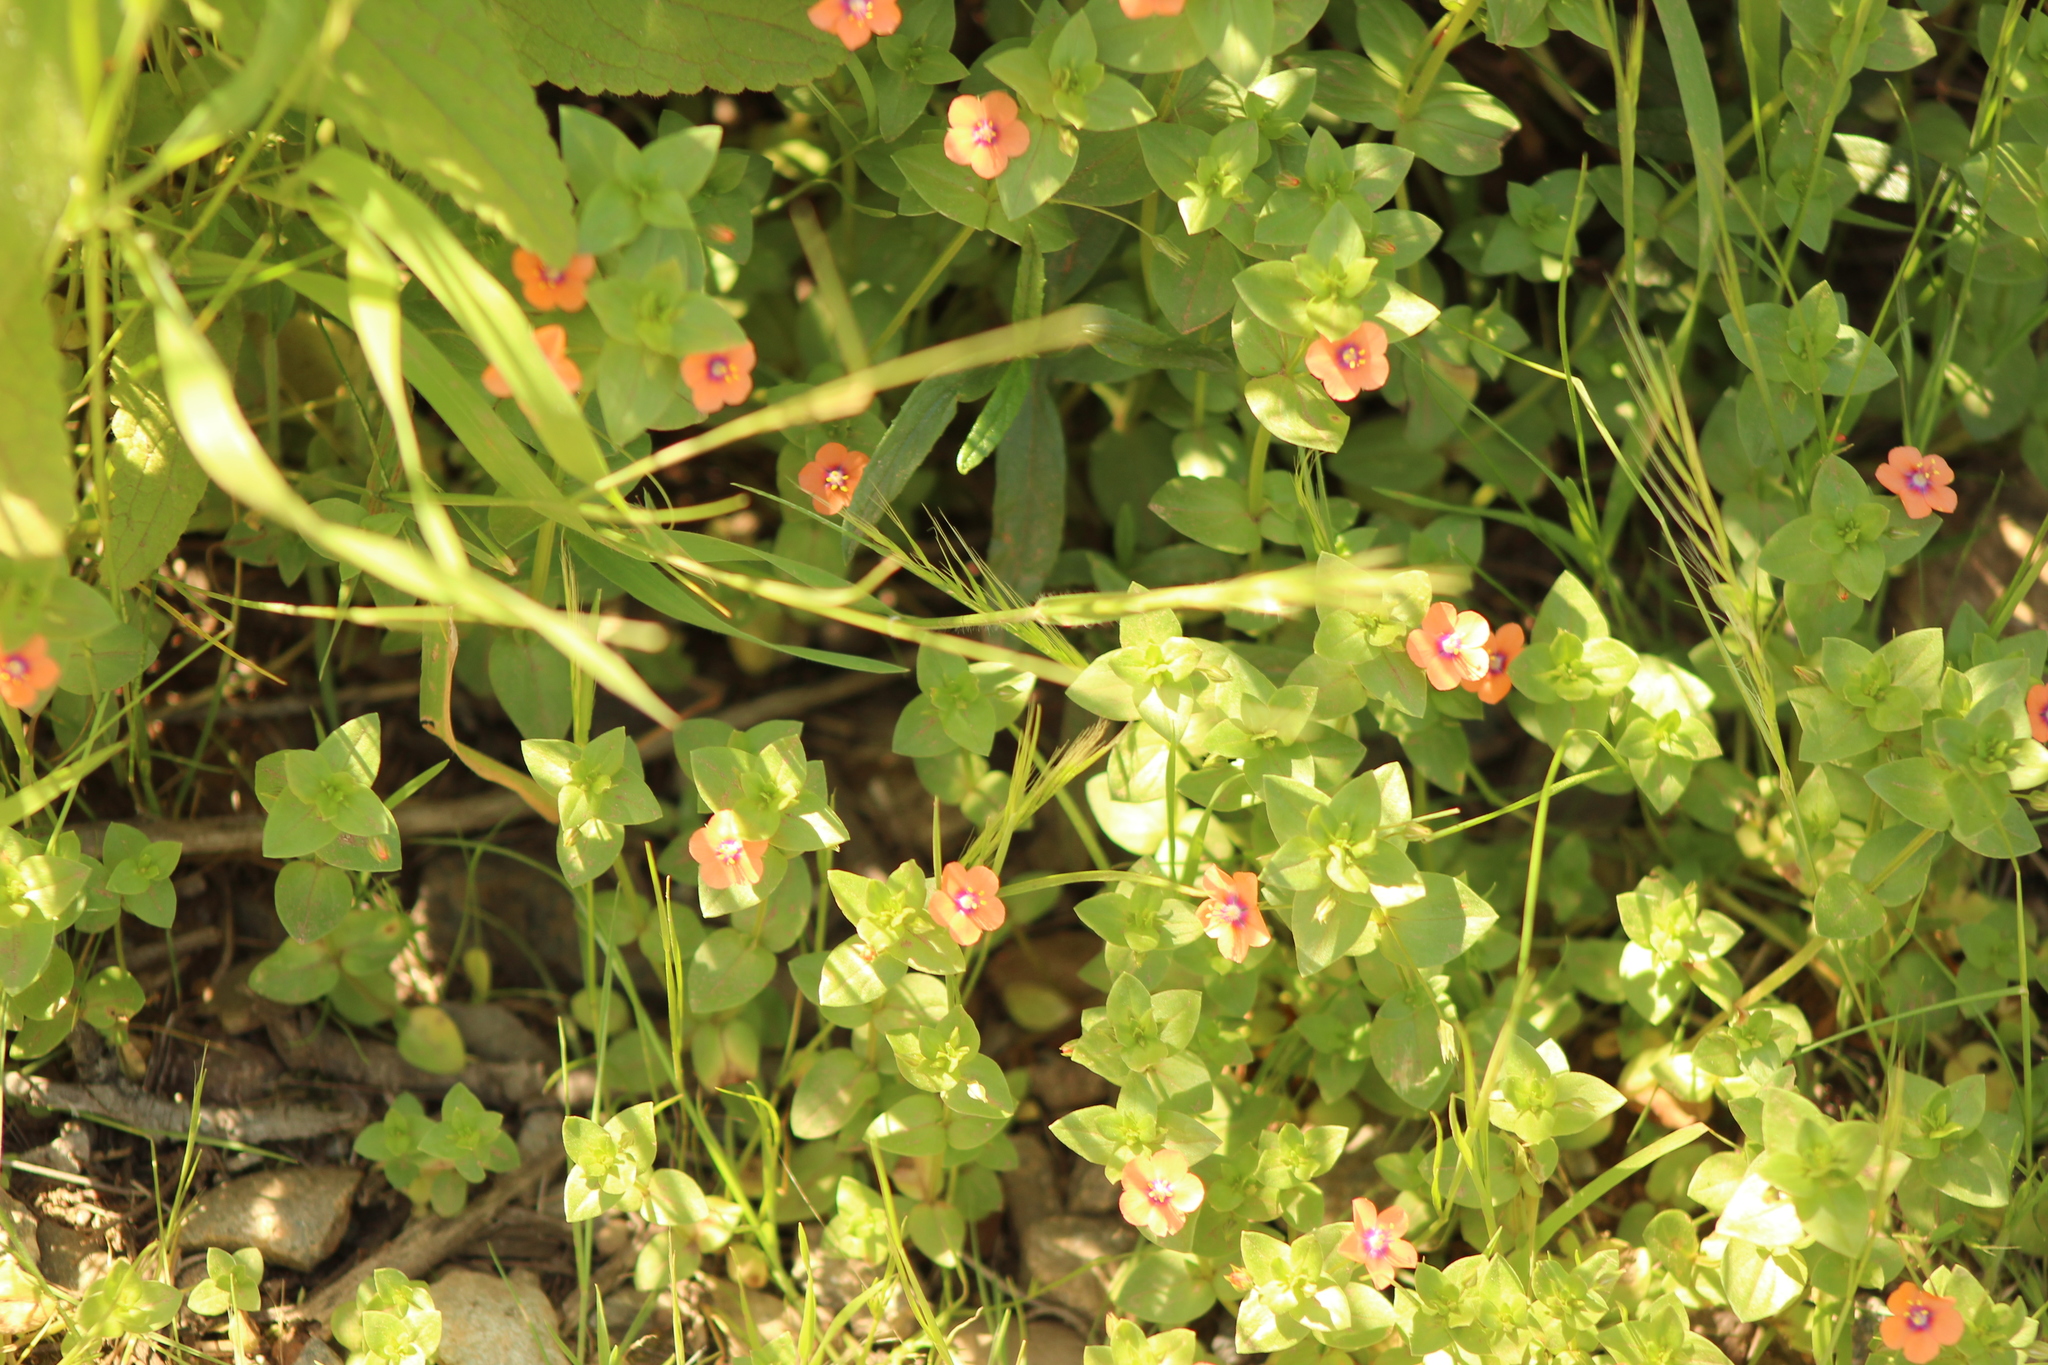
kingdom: Plantae
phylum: Tracheophyta
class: Magnoliopsida
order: Ericales
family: Primulaceae
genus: Lysimachia
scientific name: Lysimachia arvensis
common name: Scarlet pimpernel
